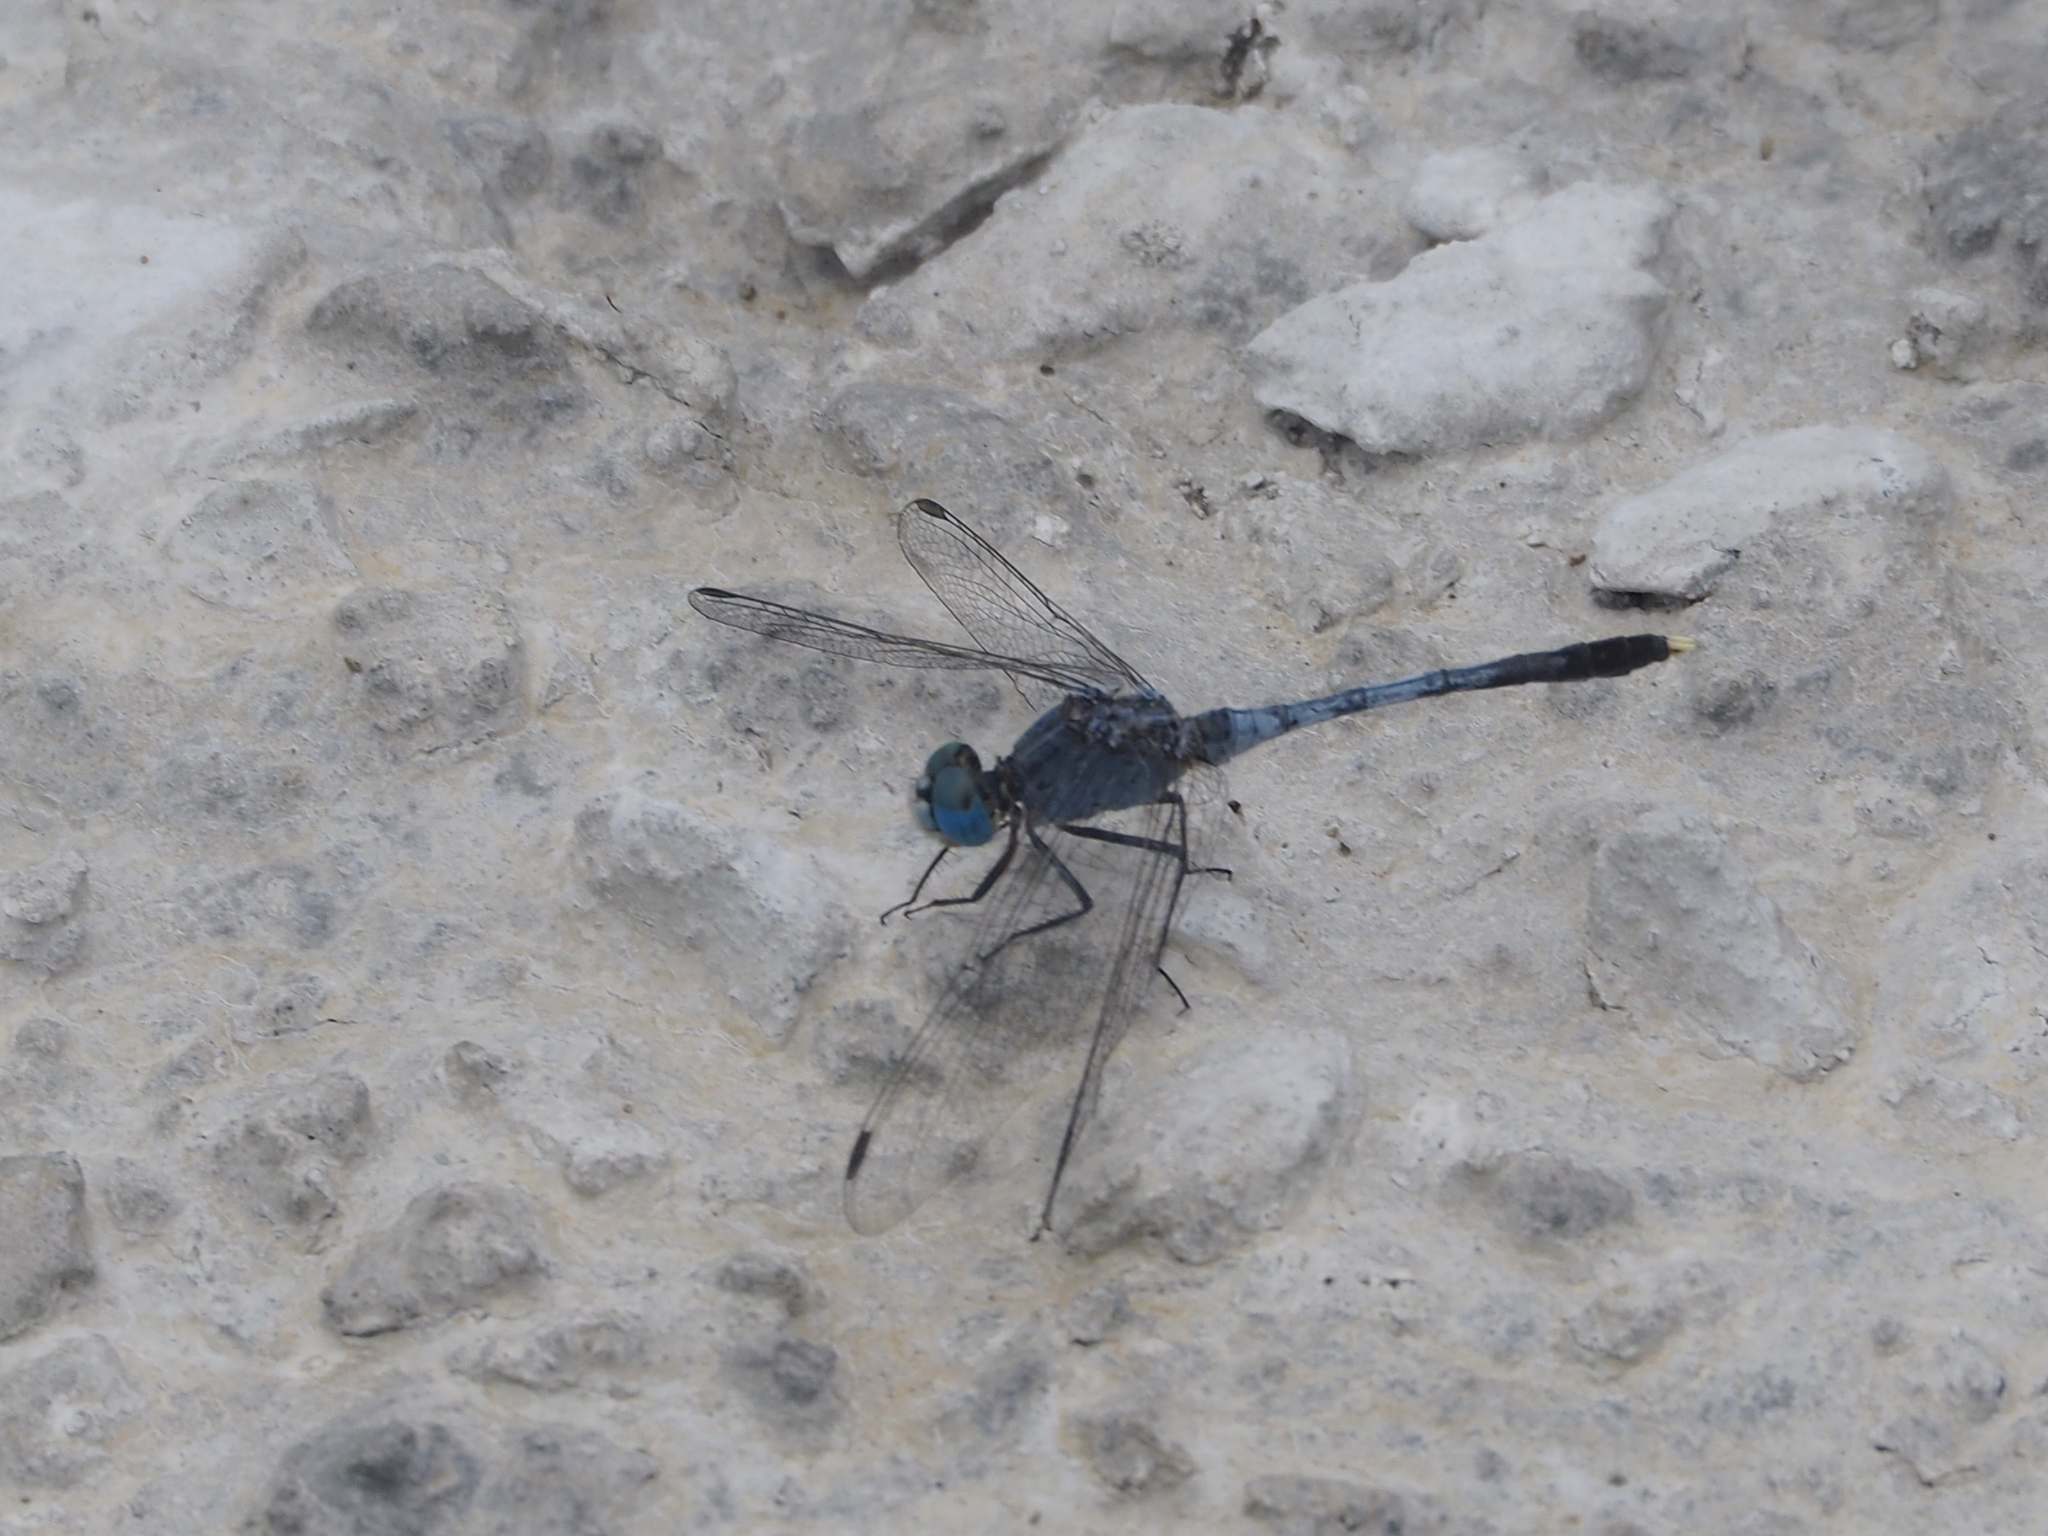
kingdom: Animalia
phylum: Arthropoda
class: Insecta
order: Odonata
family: Libellulidae
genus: Diplacodes
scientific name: Diplacodes trivialis
